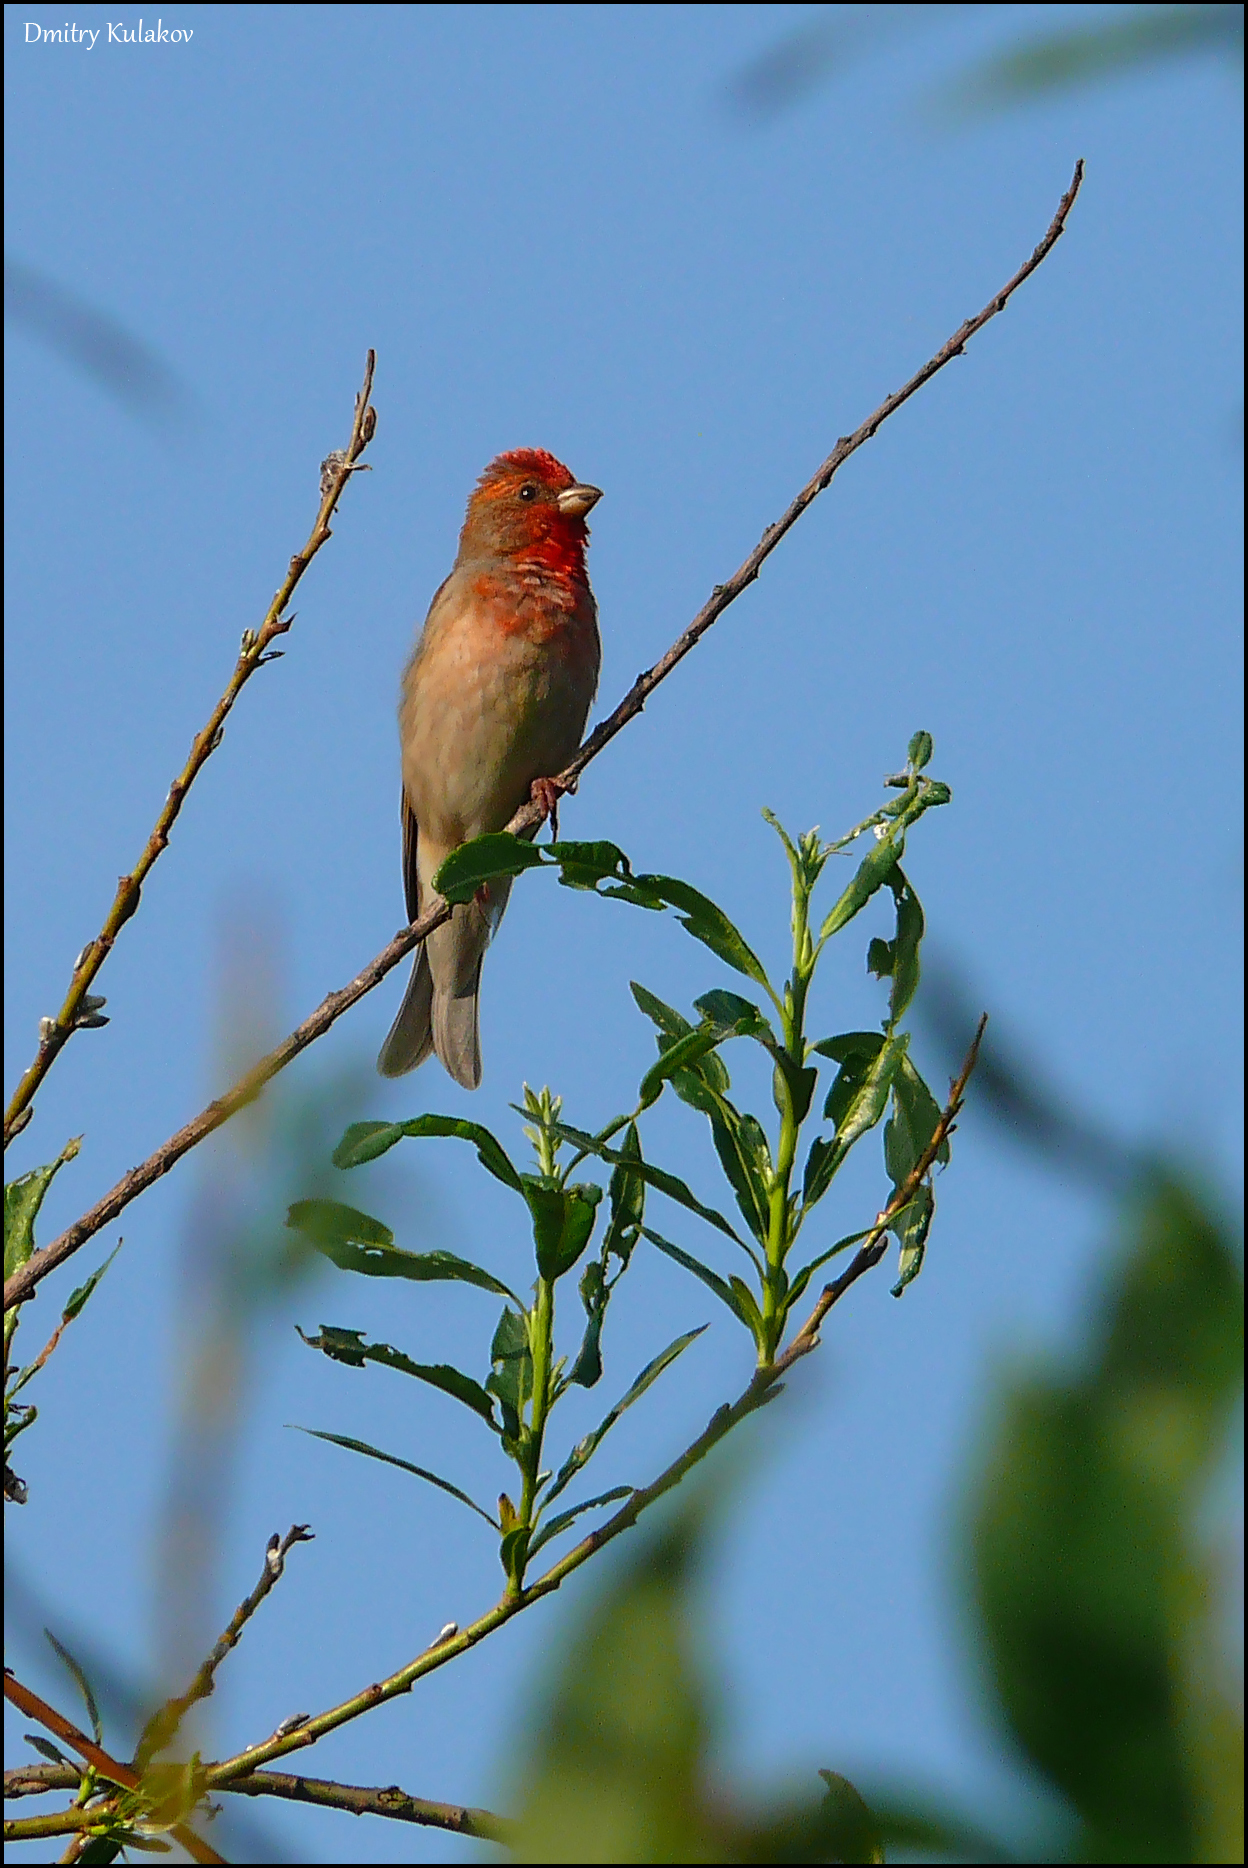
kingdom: Animalia
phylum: Chordata
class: Aves
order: Passeriformes
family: Fringillidae
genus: Carpodacus
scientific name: Carpodacus erythrinus
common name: Common rosefinch
